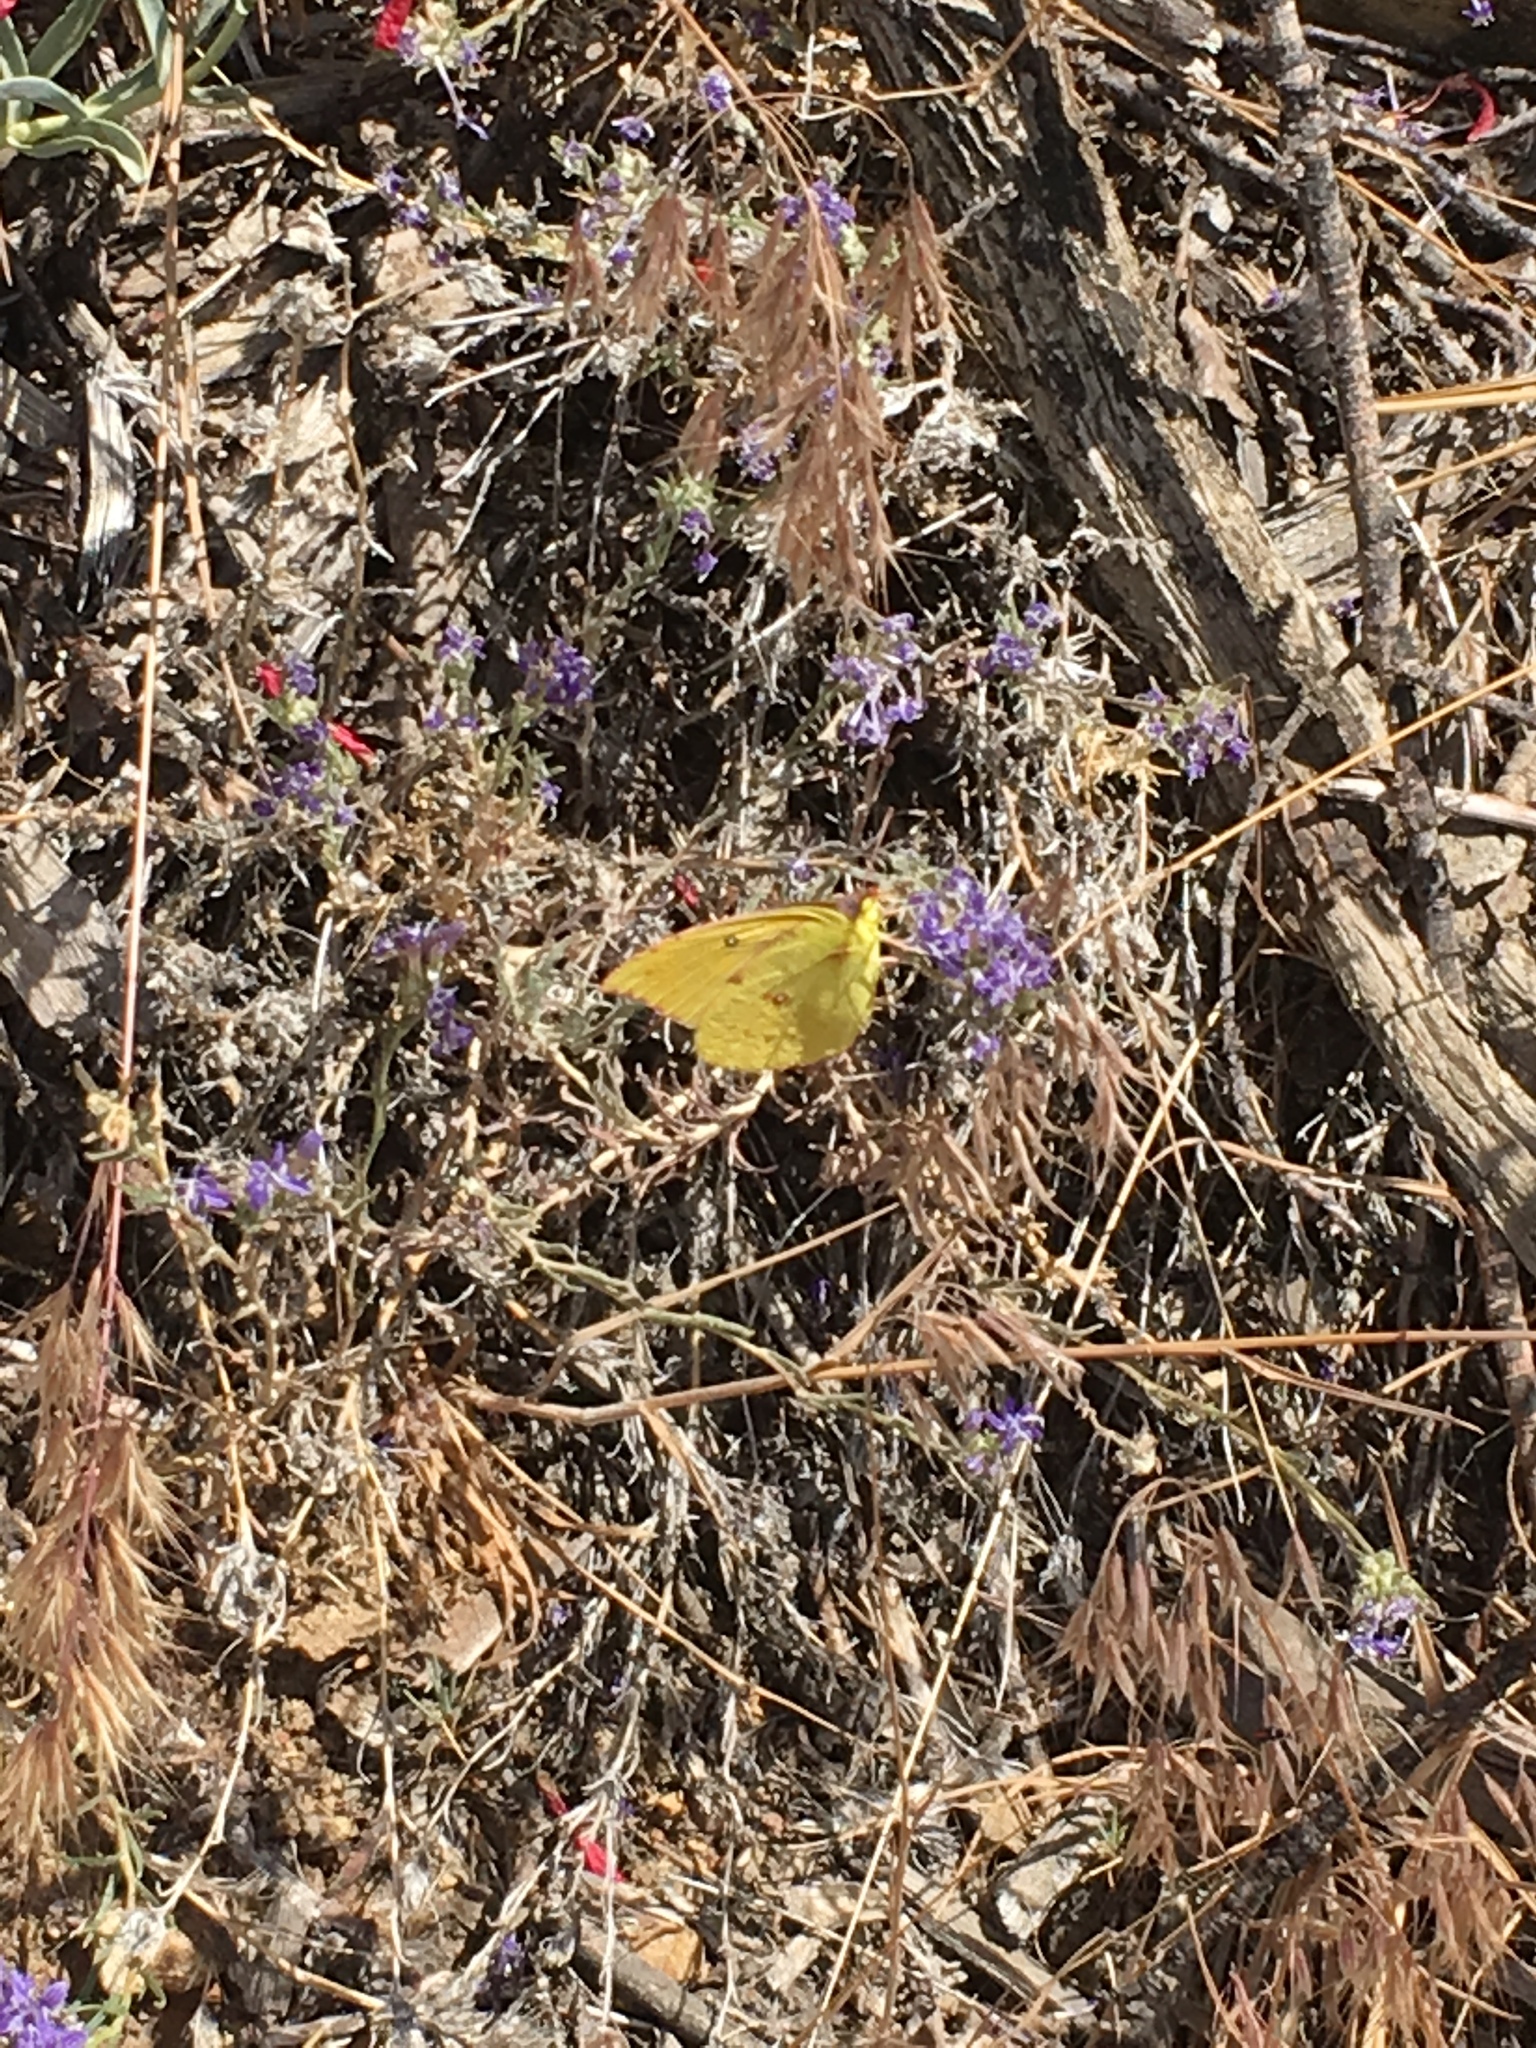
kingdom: Animalia
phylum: Arthropoda
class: Insecta
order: Lepidoptera
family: Pieridae
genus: Zerene
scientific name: Zerene eurydice
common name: California dogface
